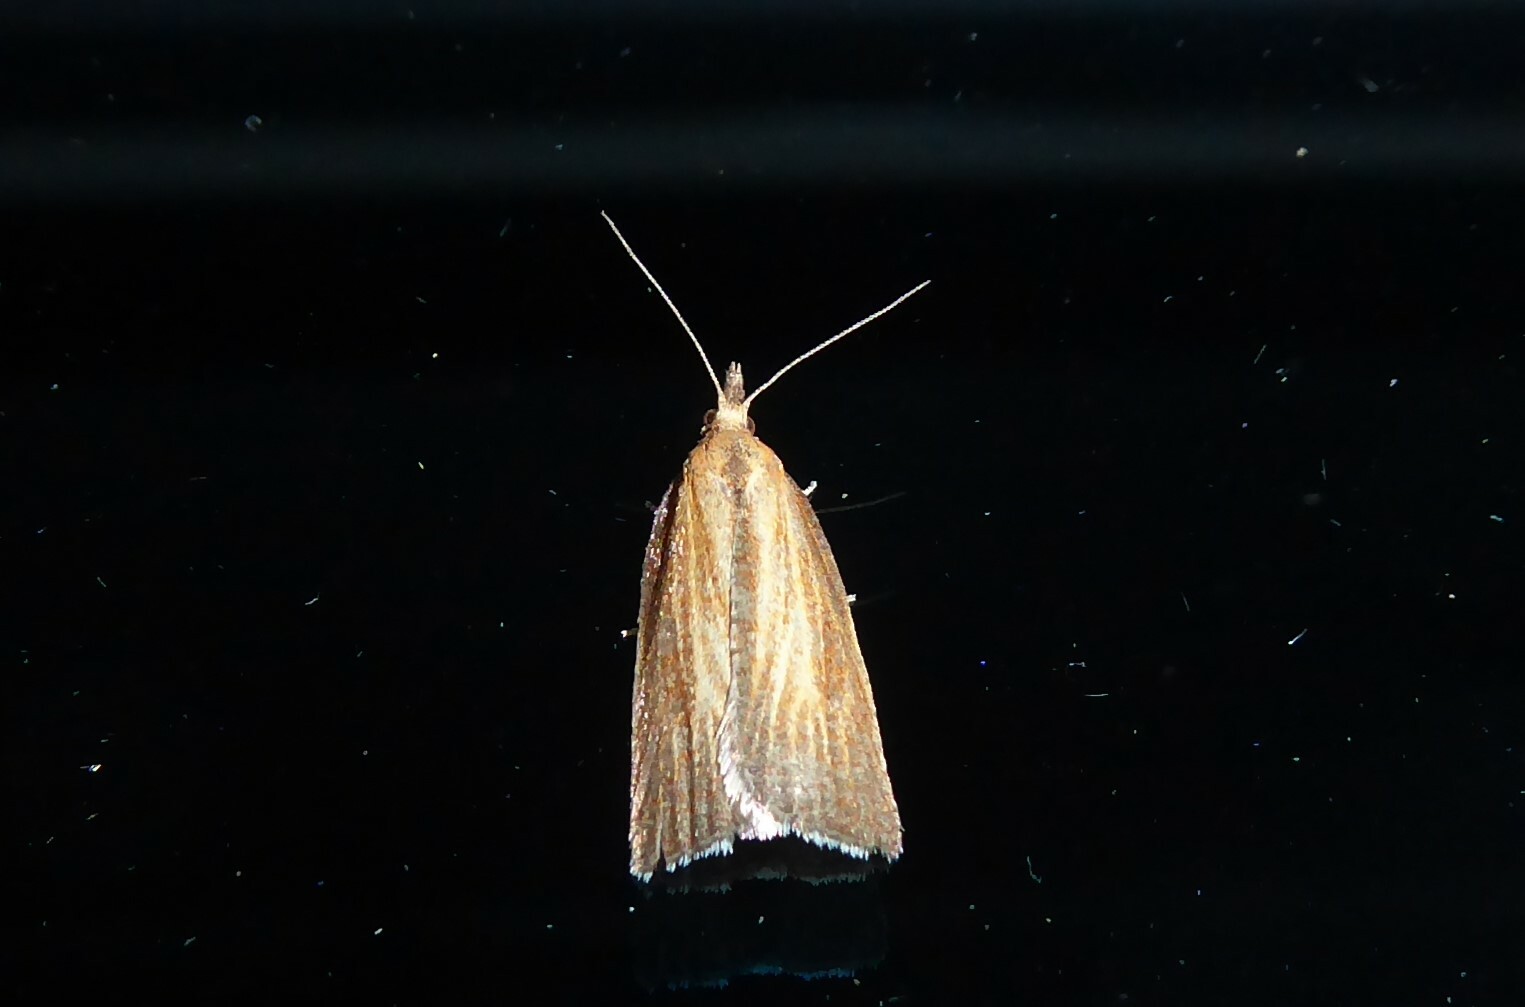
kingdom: Animalia
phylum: Arthropoda
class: Insecta
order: Lepidoptera
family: Tortricidae
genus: Catamacta
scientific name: Catamacta lotinana
